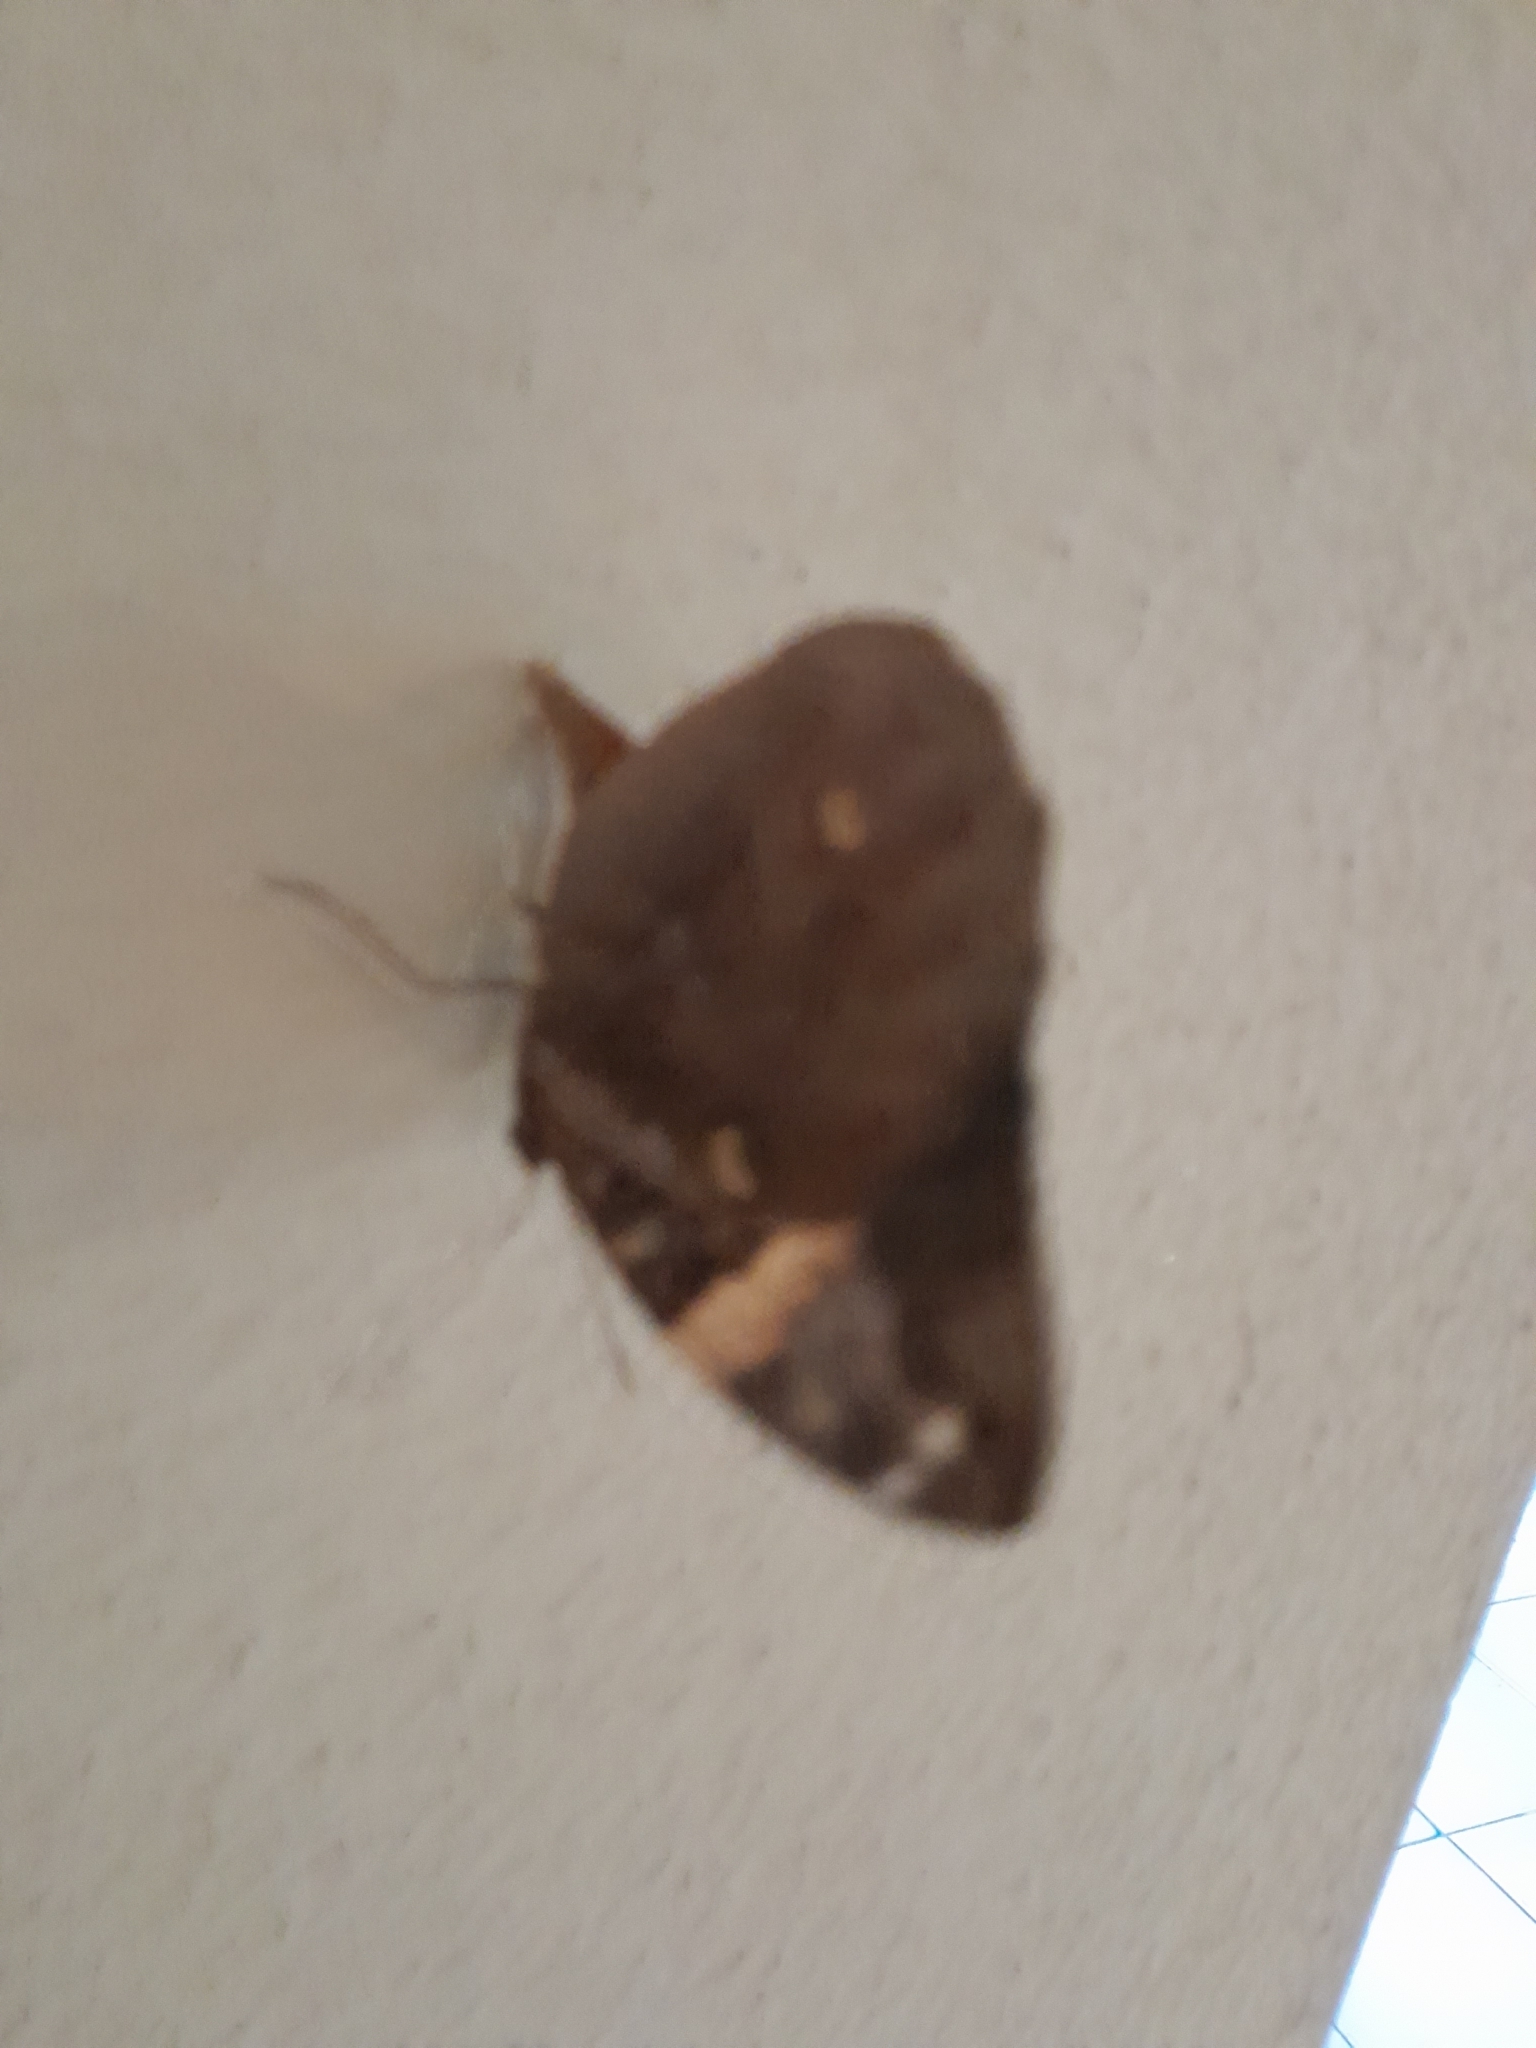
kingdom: Animalia
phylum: Arthropoda
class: Insecta
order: Lepidoptera
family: Nymphalidae
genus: Opsiphanes
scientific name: Opsiphanes invirae
